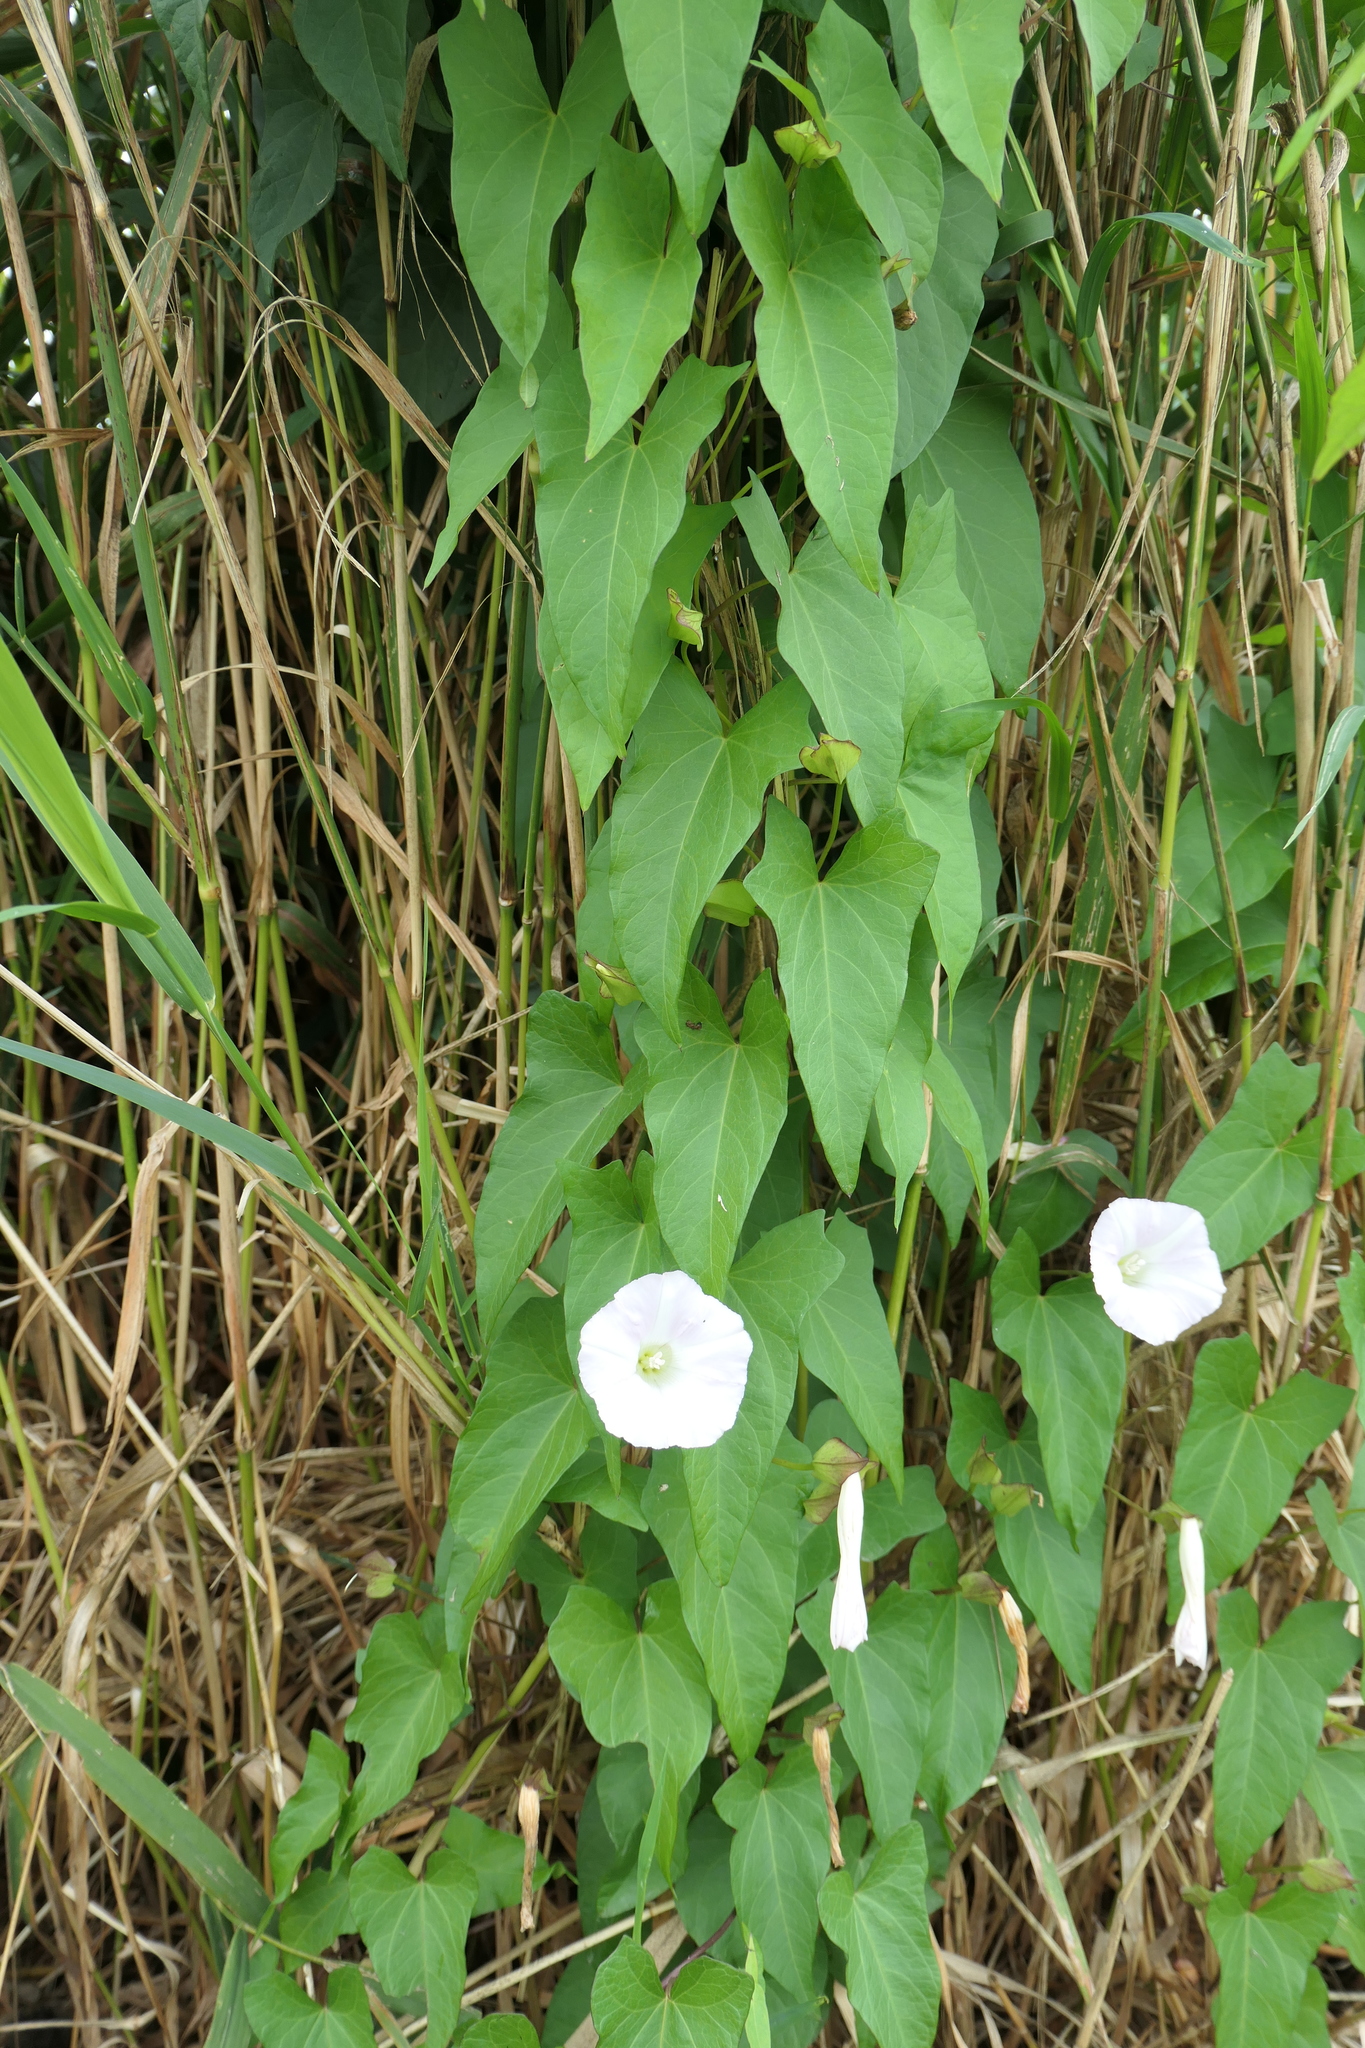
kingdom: Plantae
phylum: Tracheophyta
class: Magnoliopsida
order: Solanales
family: Convolvulaceae
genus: Calystegia
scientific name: Calystegia sepium
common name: Hedge bindweed
